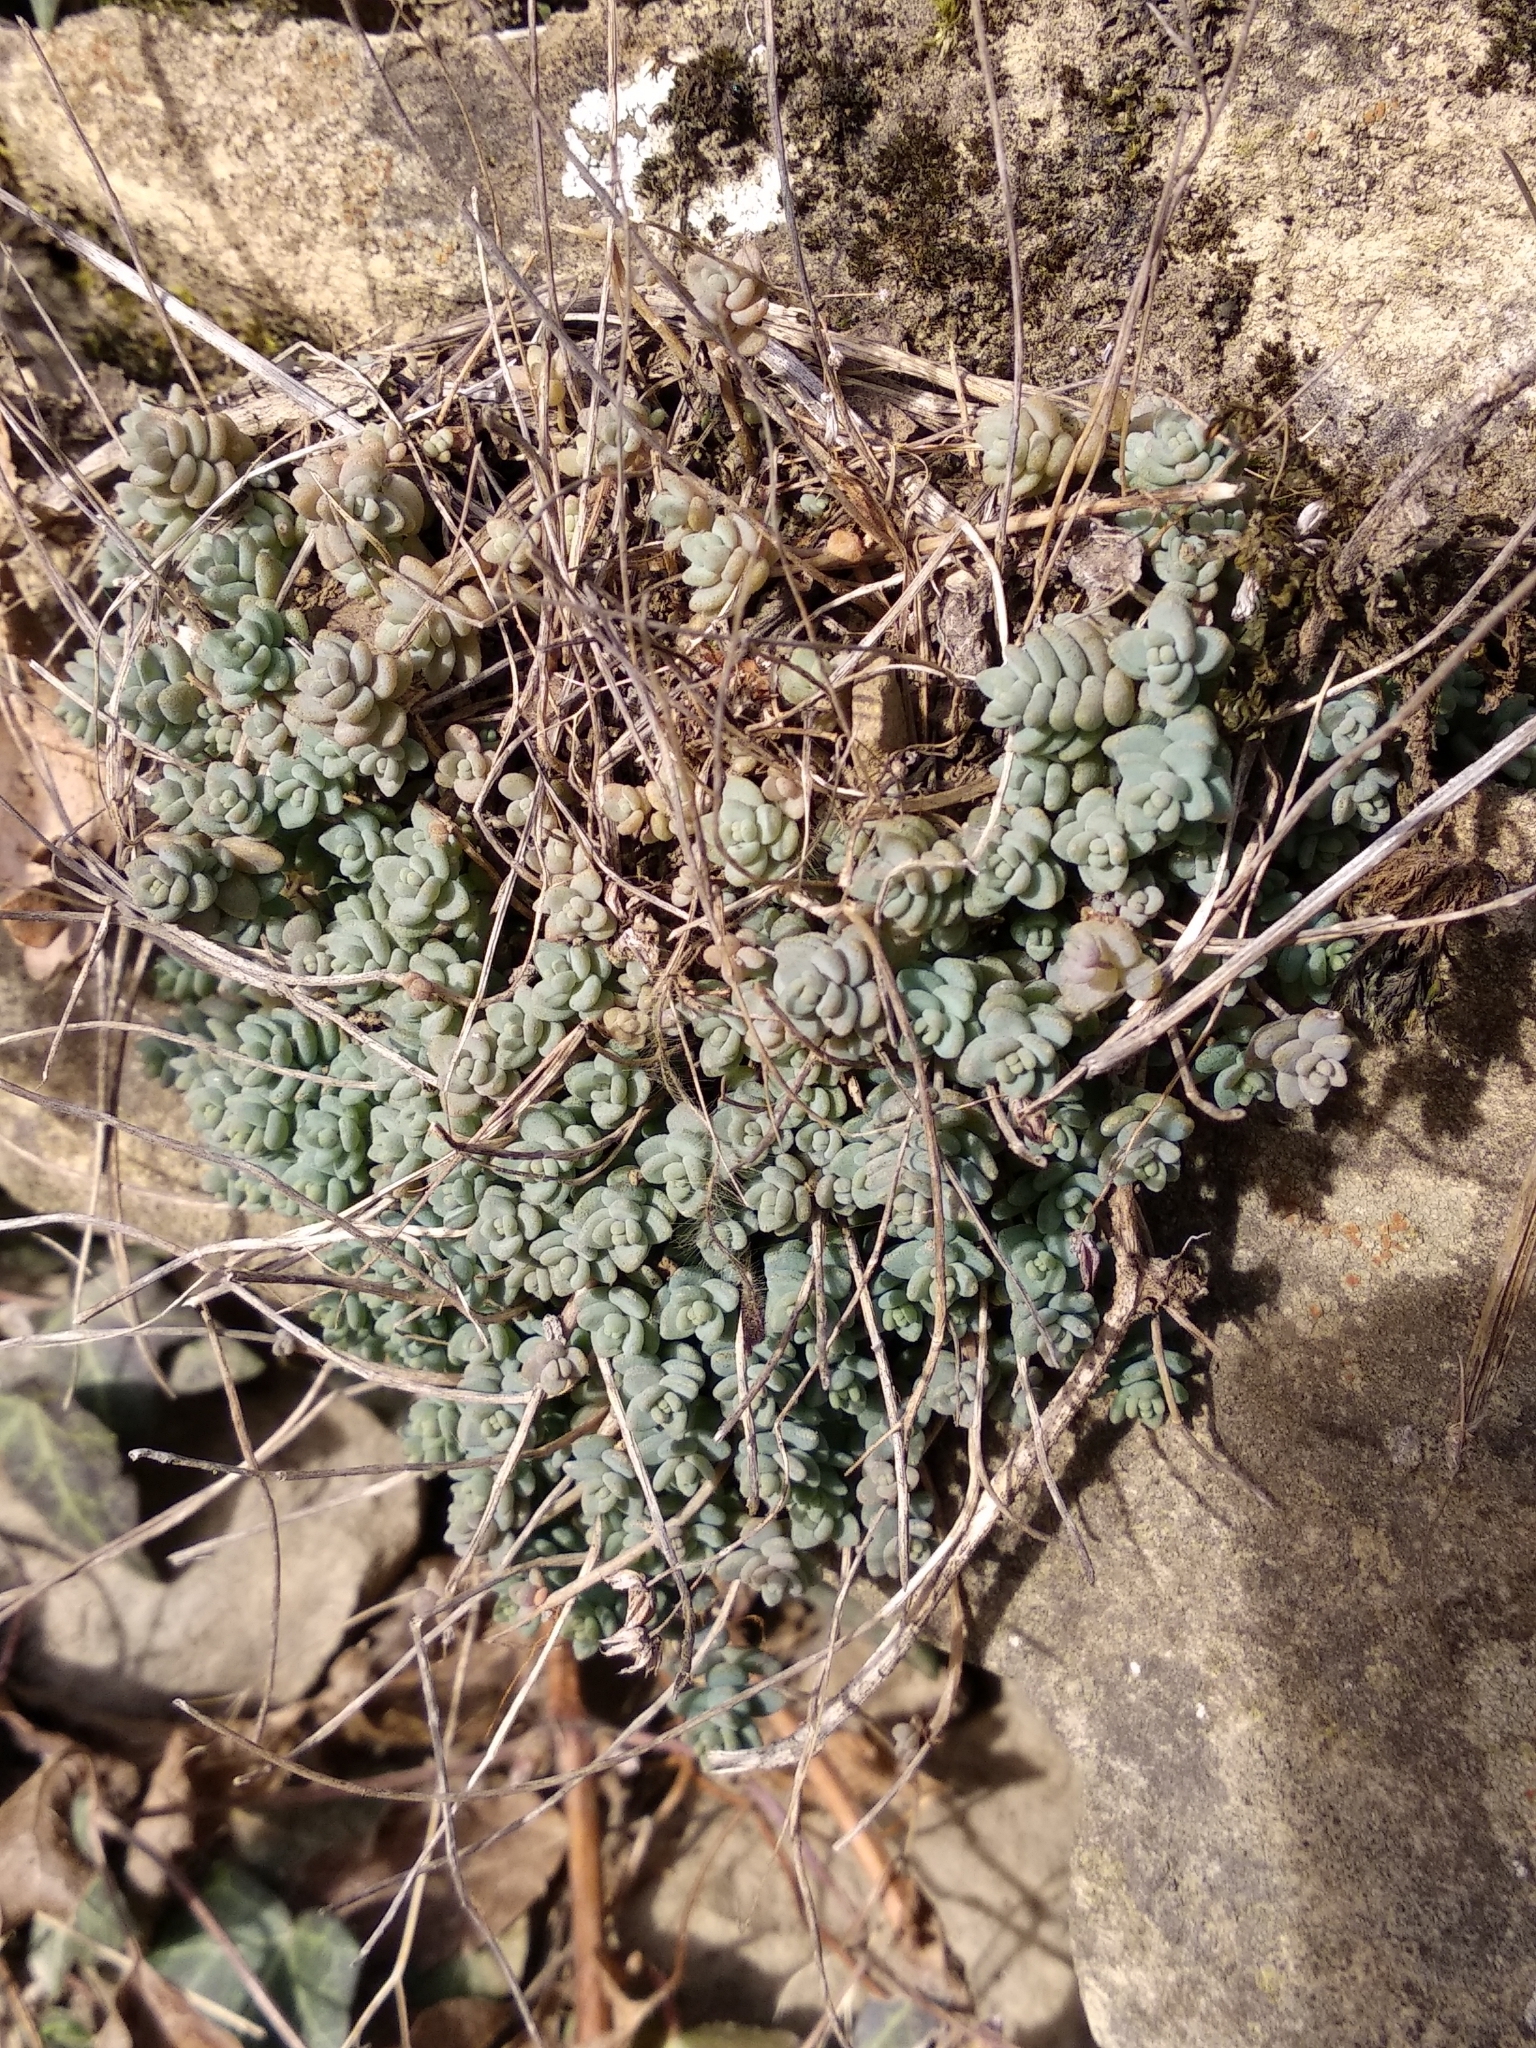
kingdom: Plantae
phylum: Tracheophyta
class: Magnoliopsida
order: Saxifragales
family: Crassulaceae
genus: Sedum
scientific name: Sedum dasyphyllum
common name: Thick-leaf stonecrop
